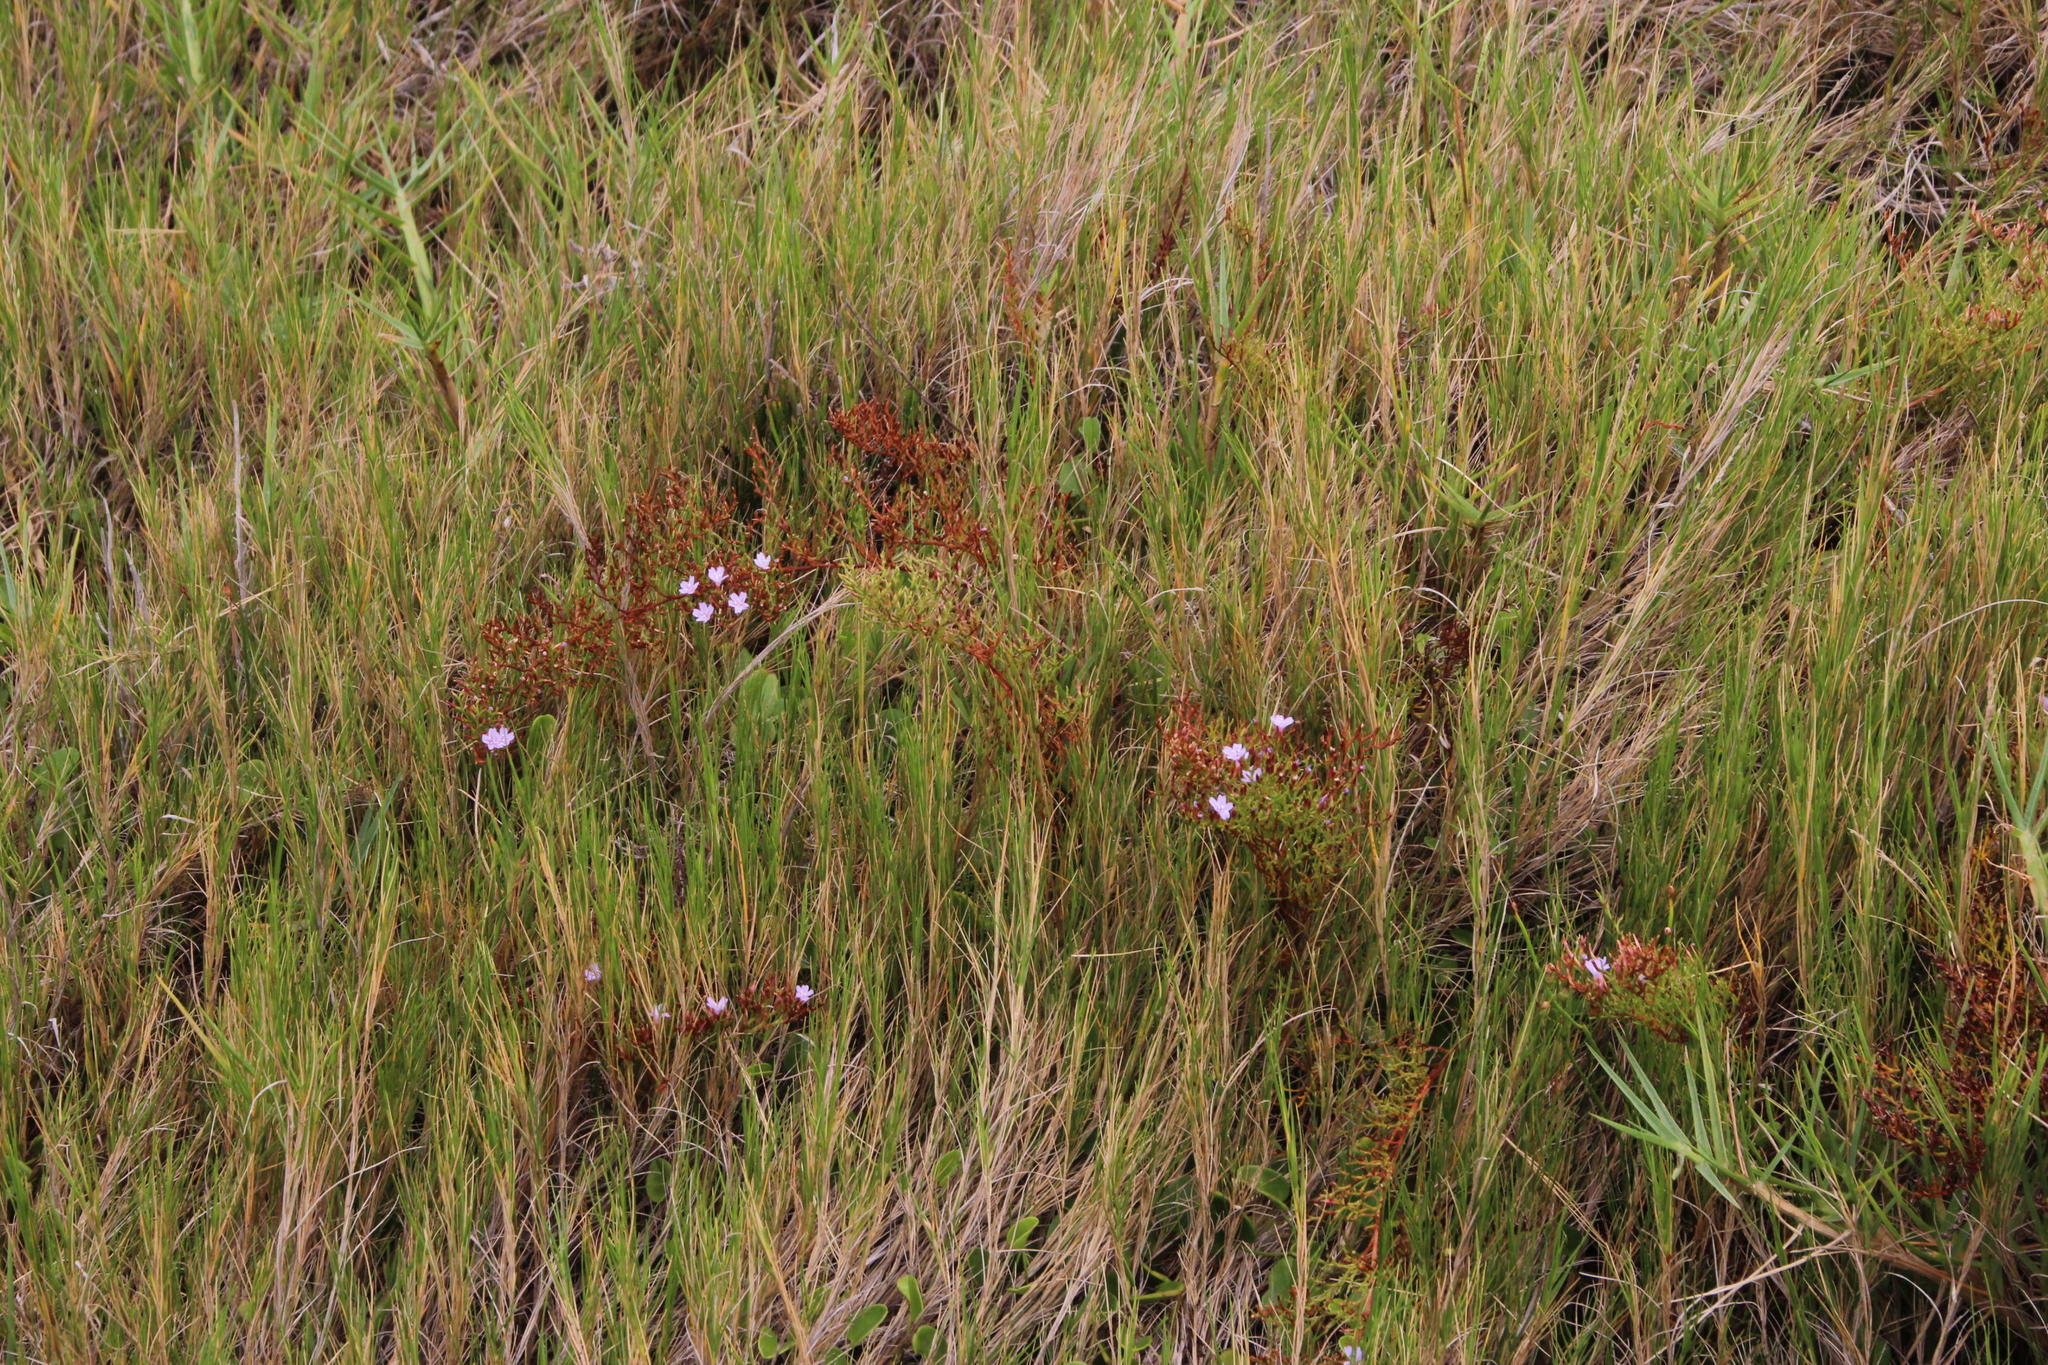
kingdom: Plantae
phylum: Tracheophyta
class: Magnoliopsida
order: Caryophyllales
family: Plumbaginaceae
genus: Limonium
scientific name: Limonium scabrum
